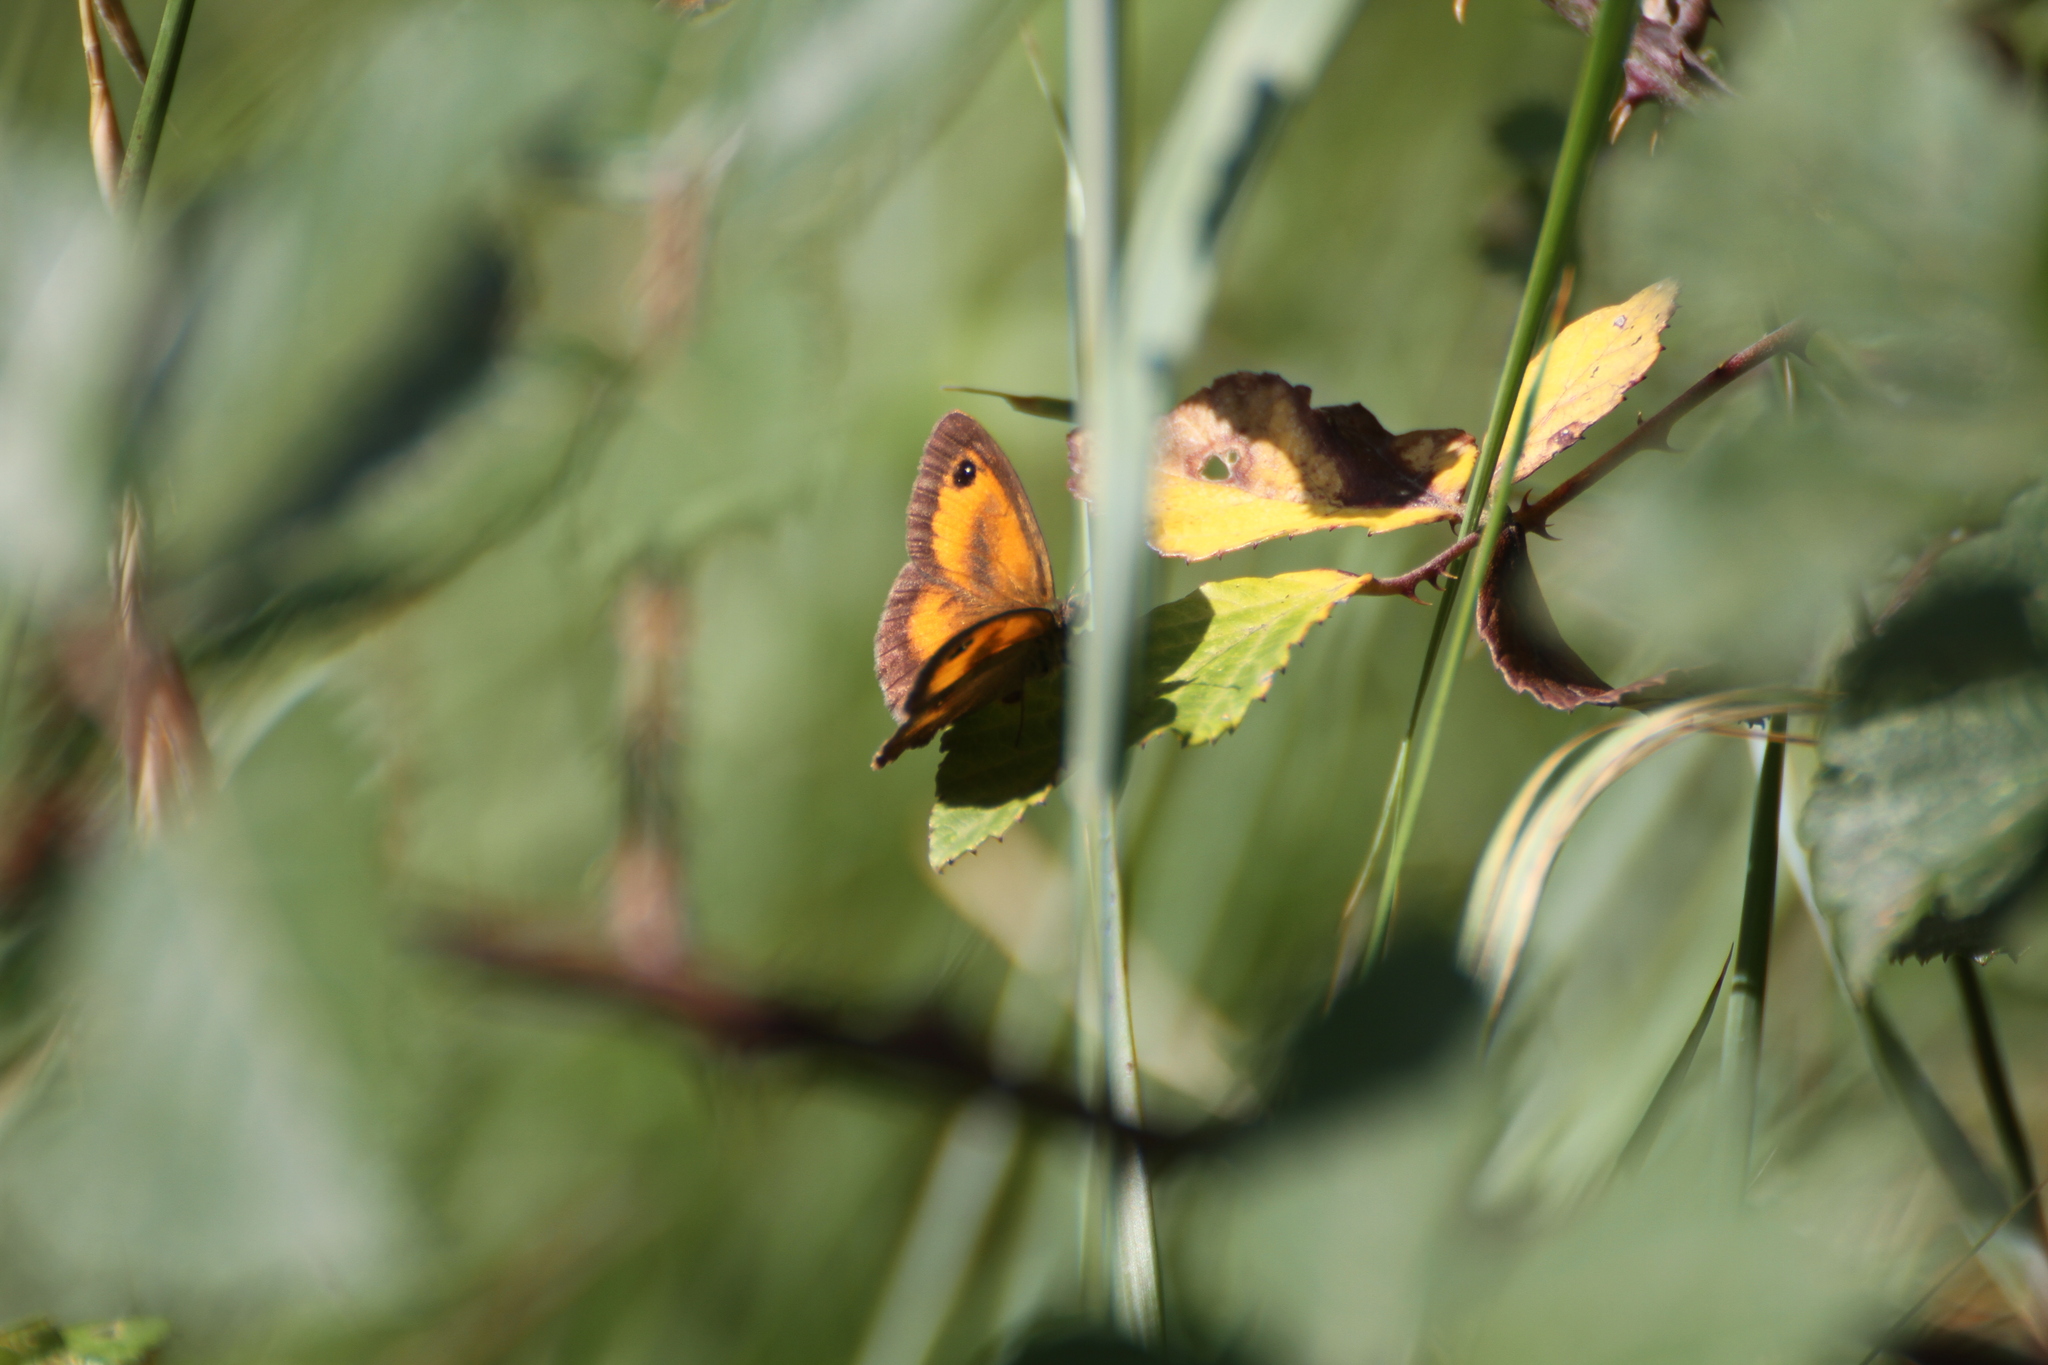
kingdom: Animalia
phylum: Arthropoda
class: Insecta
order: Lepidoptera
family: Nymphalidae
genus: Pyronia
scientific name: Pyronia tithonus
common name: Gatekeeper
